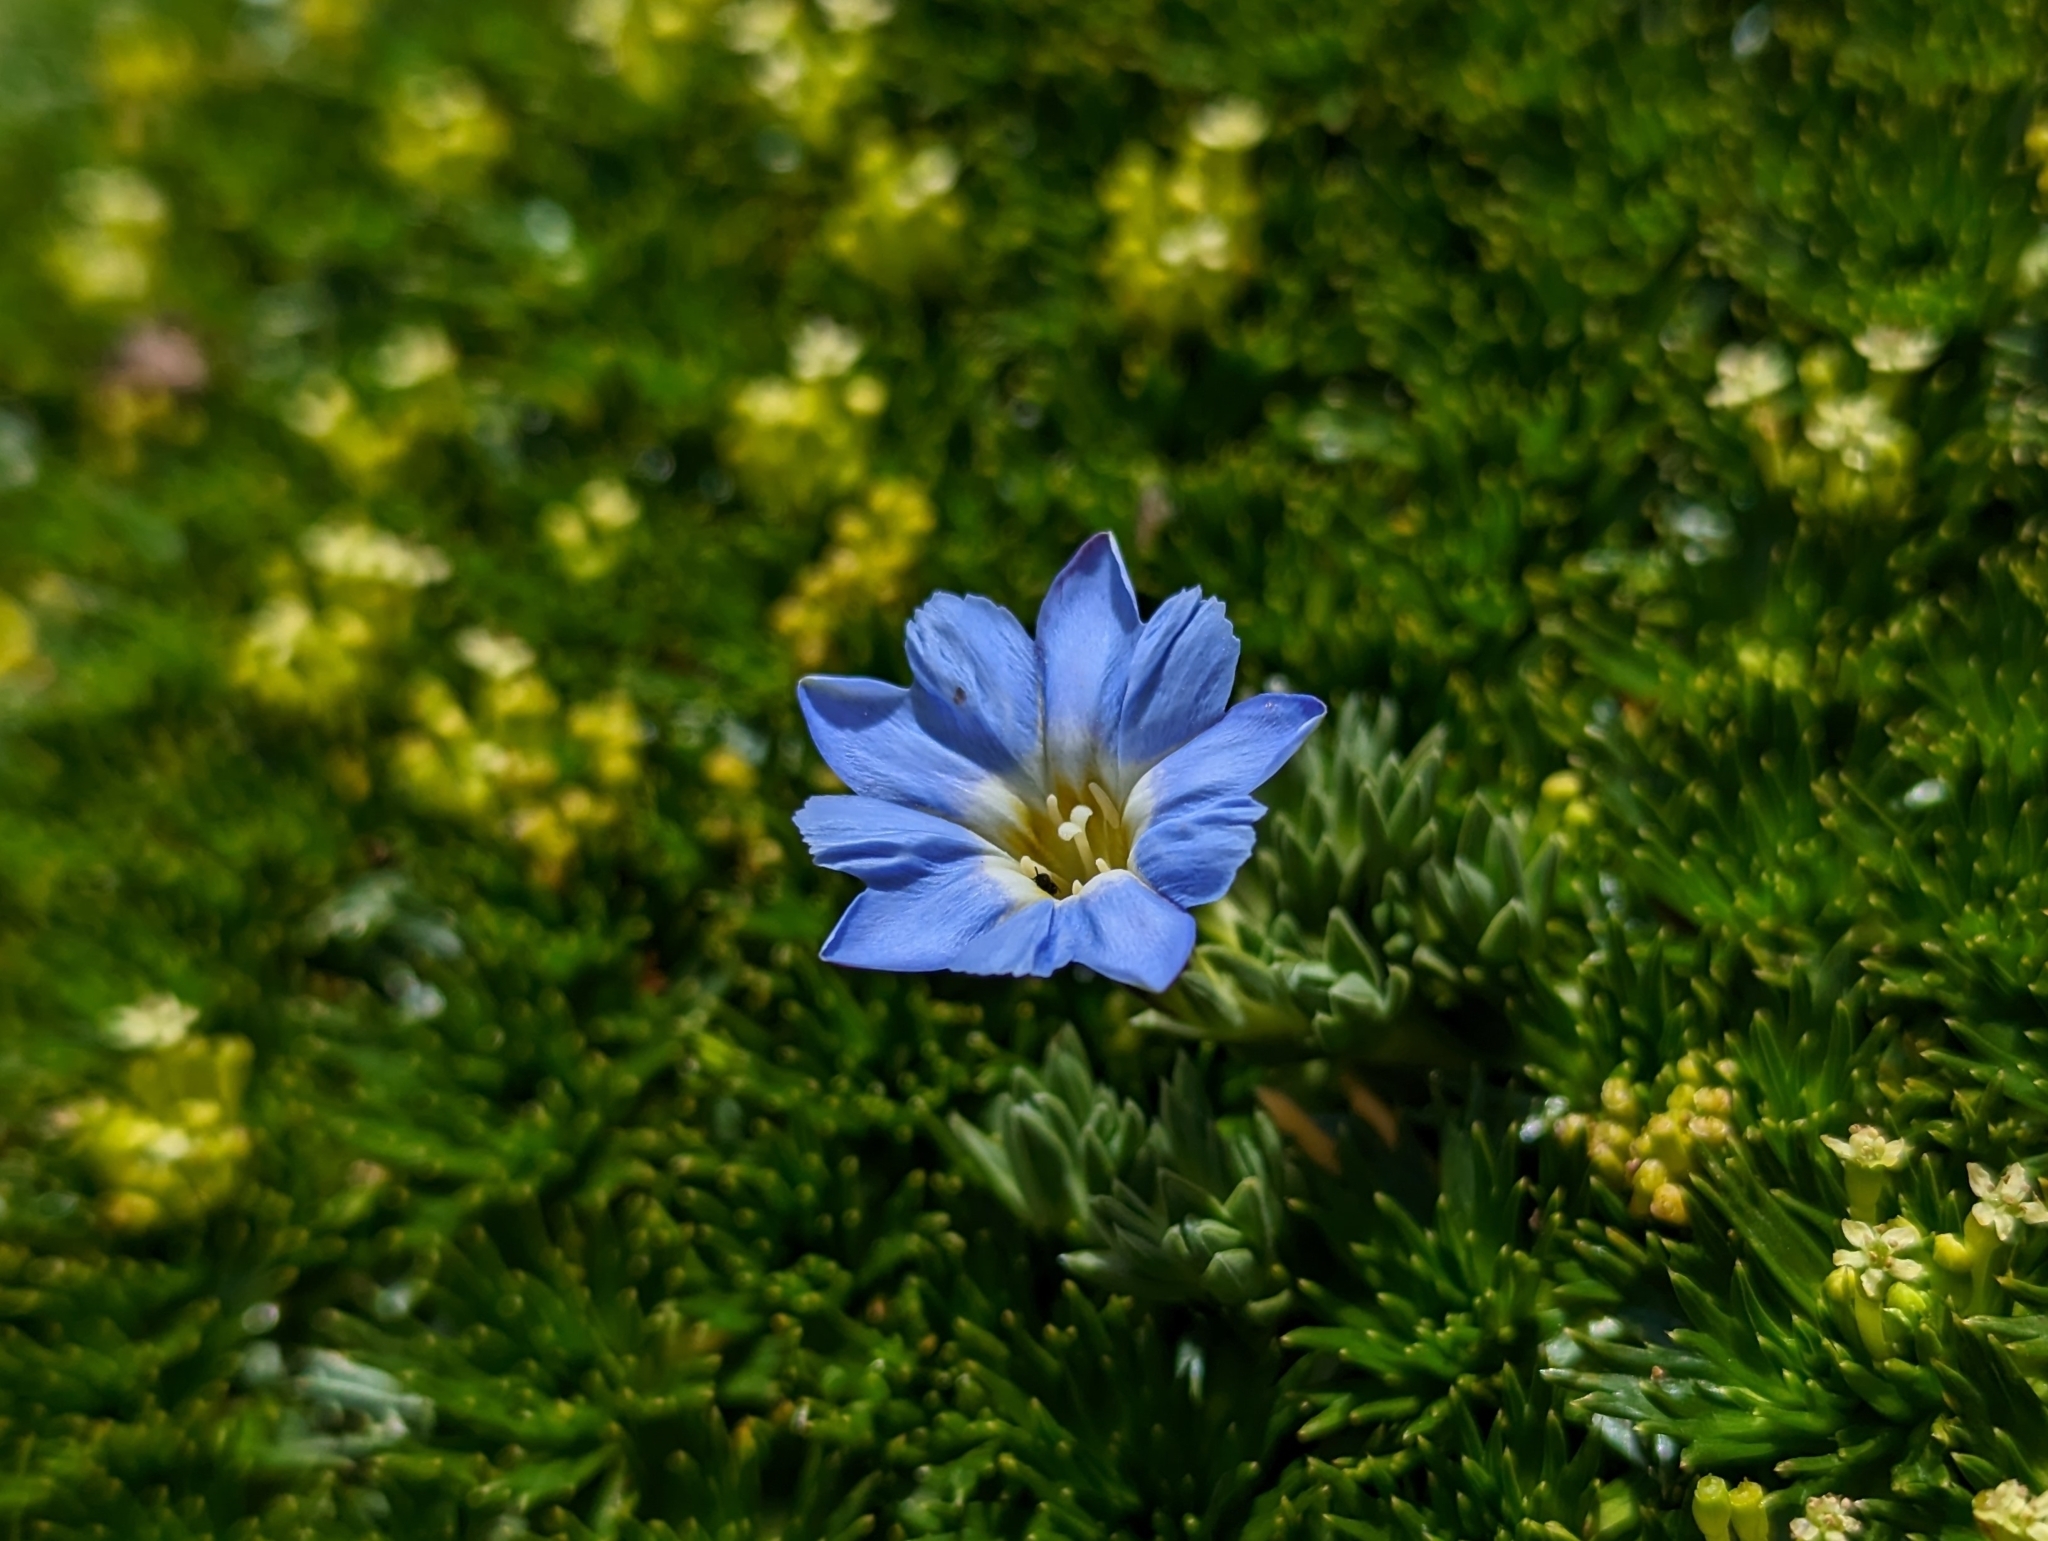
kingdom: Plantae
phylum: Tracheophyta
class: Magnoliopsida
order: Gentianales
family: Gentianaceae
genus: Gentiana
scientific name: Gentiana sedifolia
